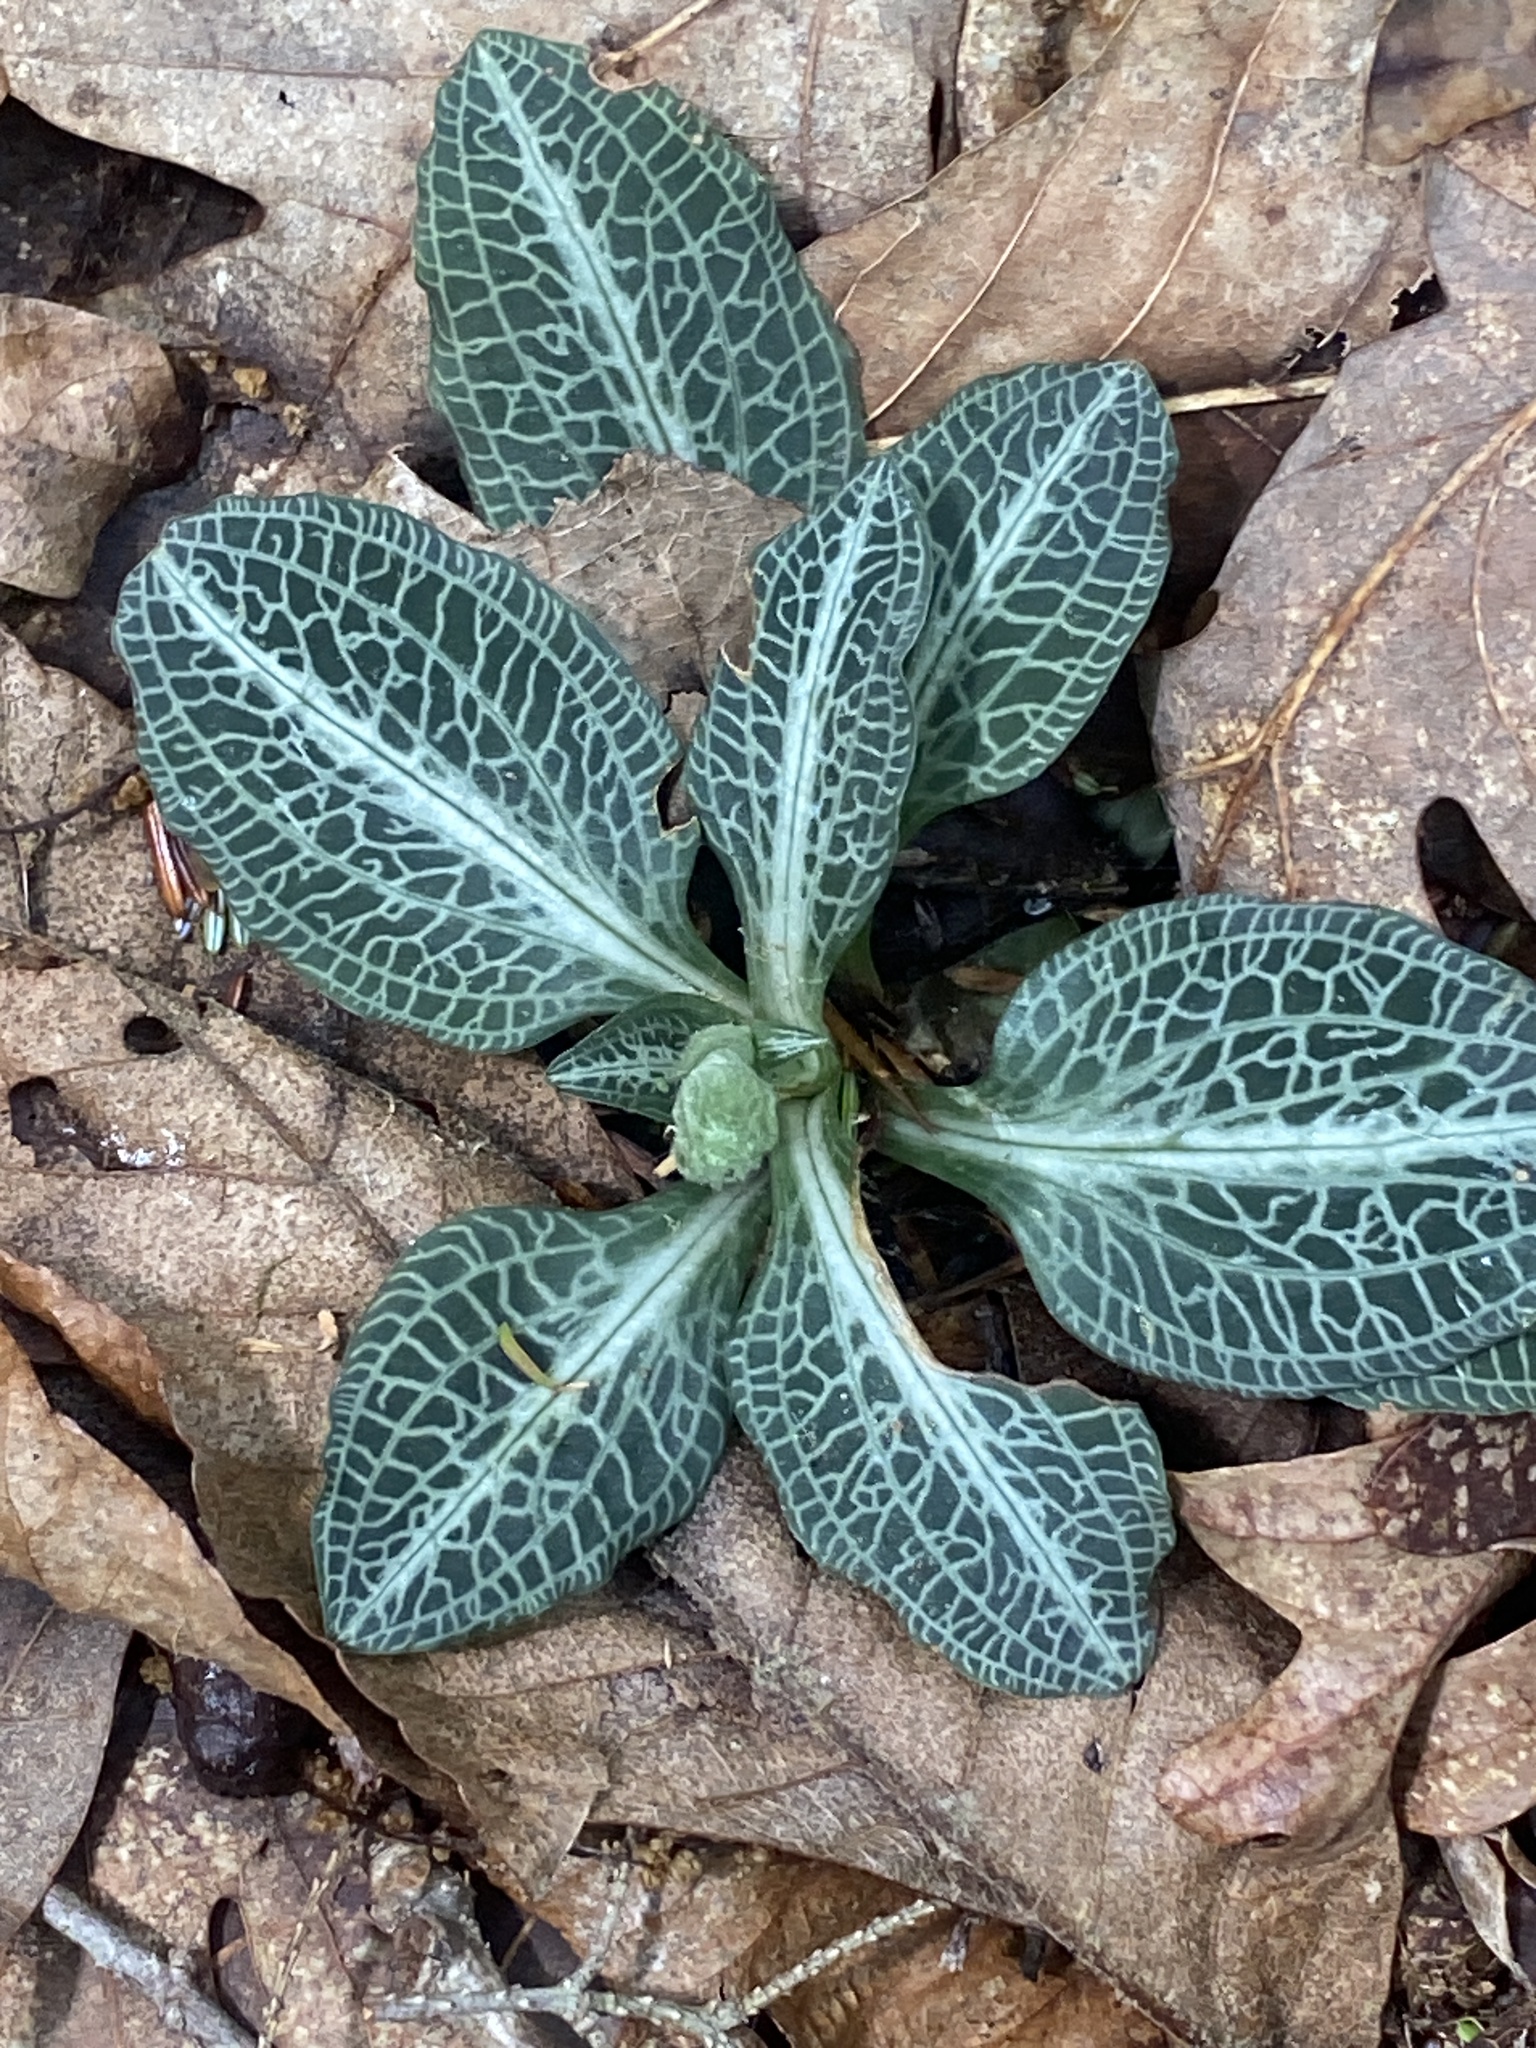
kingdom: Plantae
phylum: Tracheophyta
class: Liliopsida
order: Asparagales
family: Orchidaceae
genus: Goodyera
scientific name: Goodyera pubescens
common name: Downy rattlesnake-plantain
